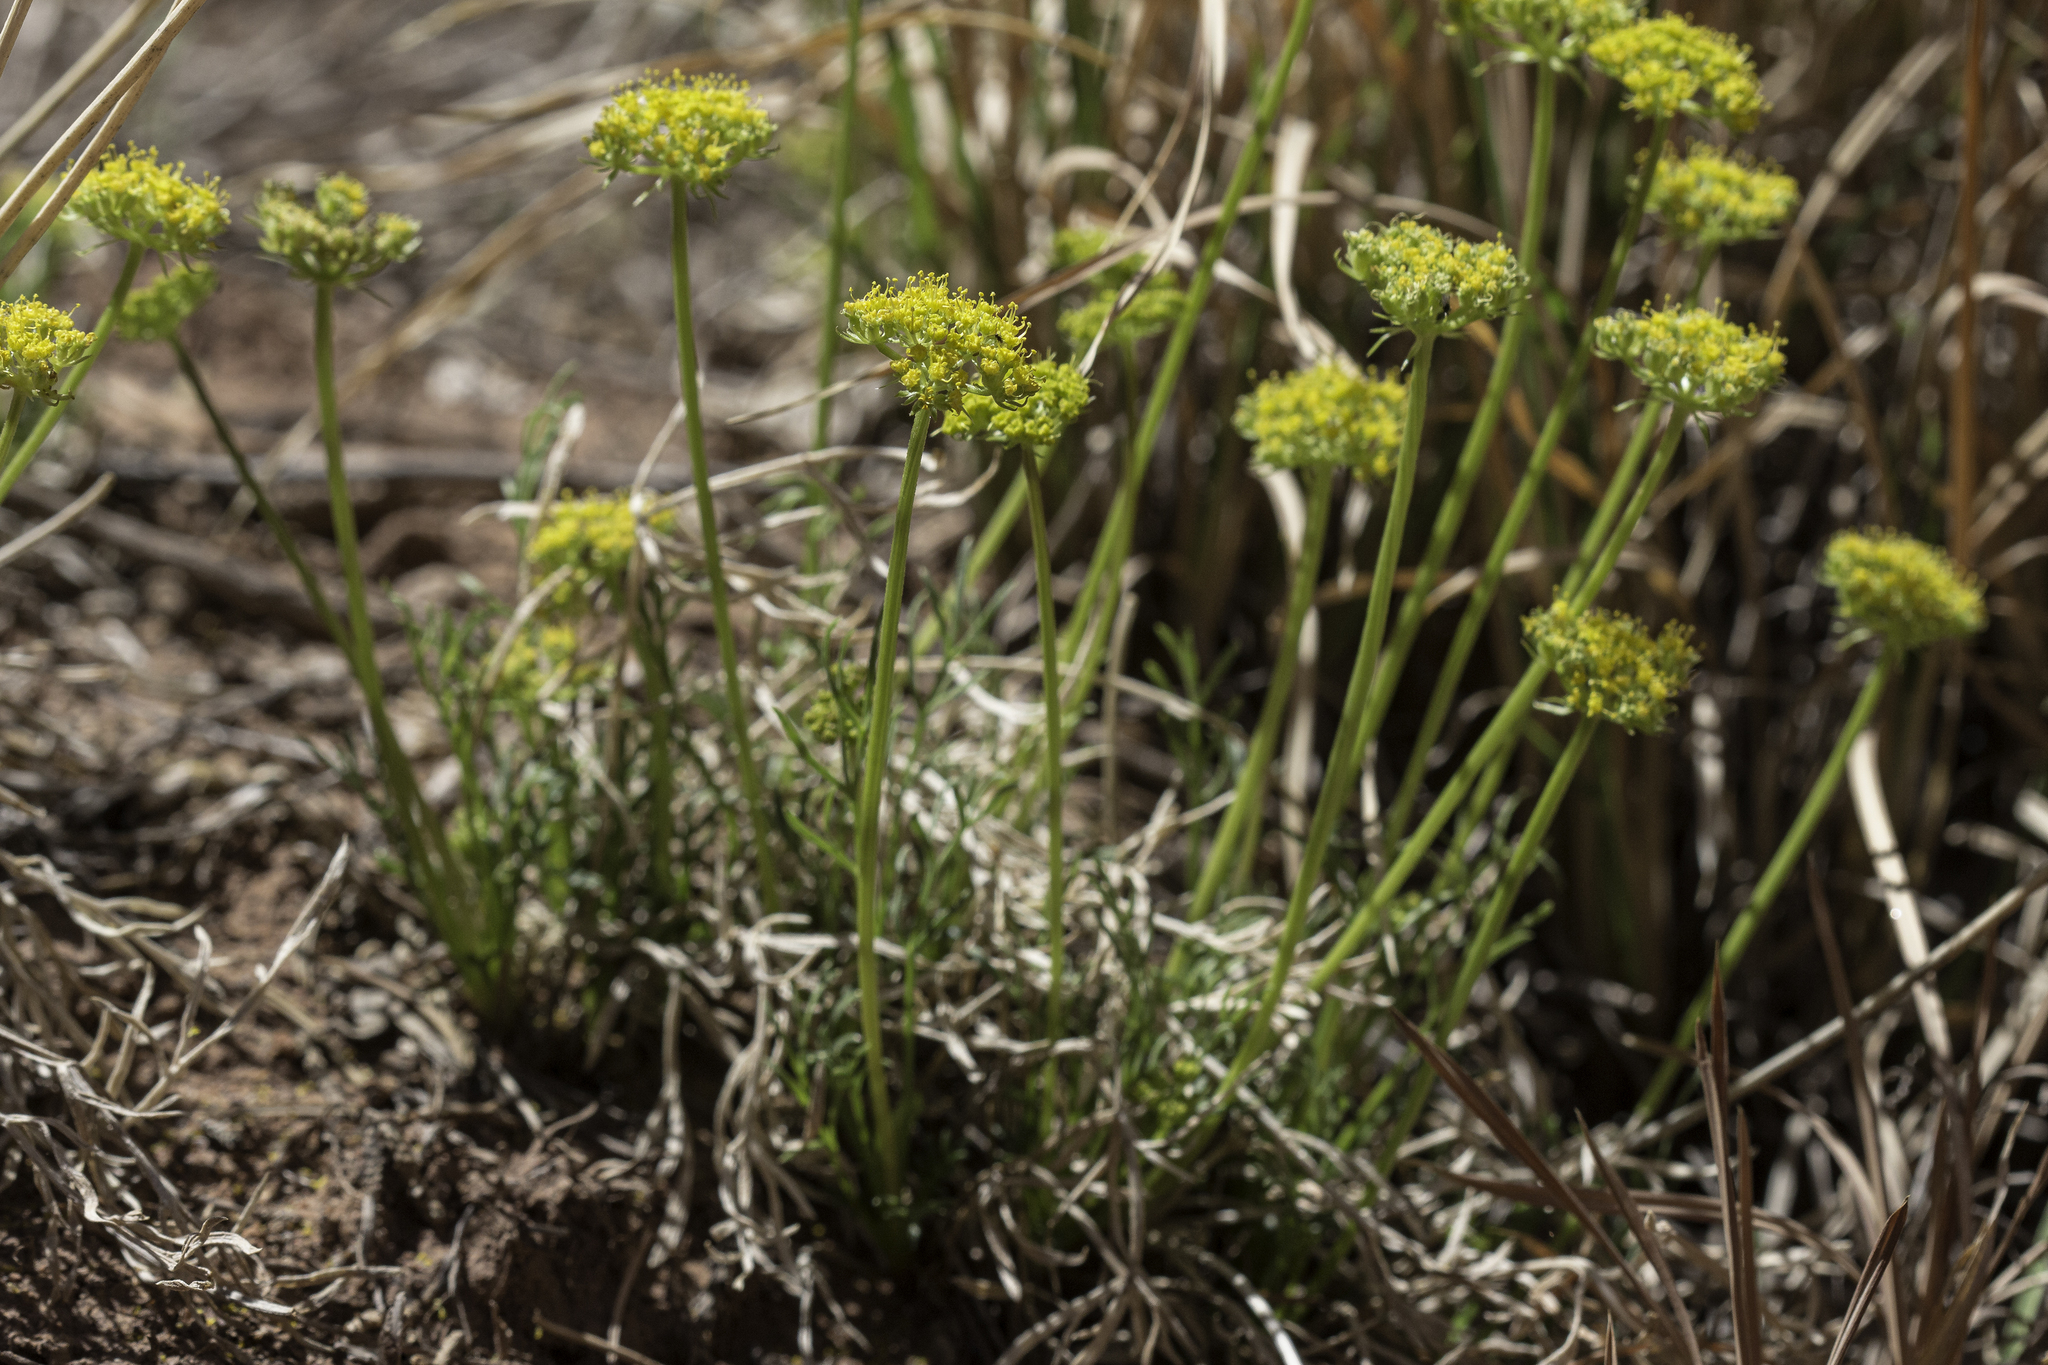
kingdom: Plantae
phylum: Tracheophyta
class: Magnoliopsida
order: Apiales
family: Apiaceae
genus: Cymopterus
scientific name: Cymopterus sessiliflorus
